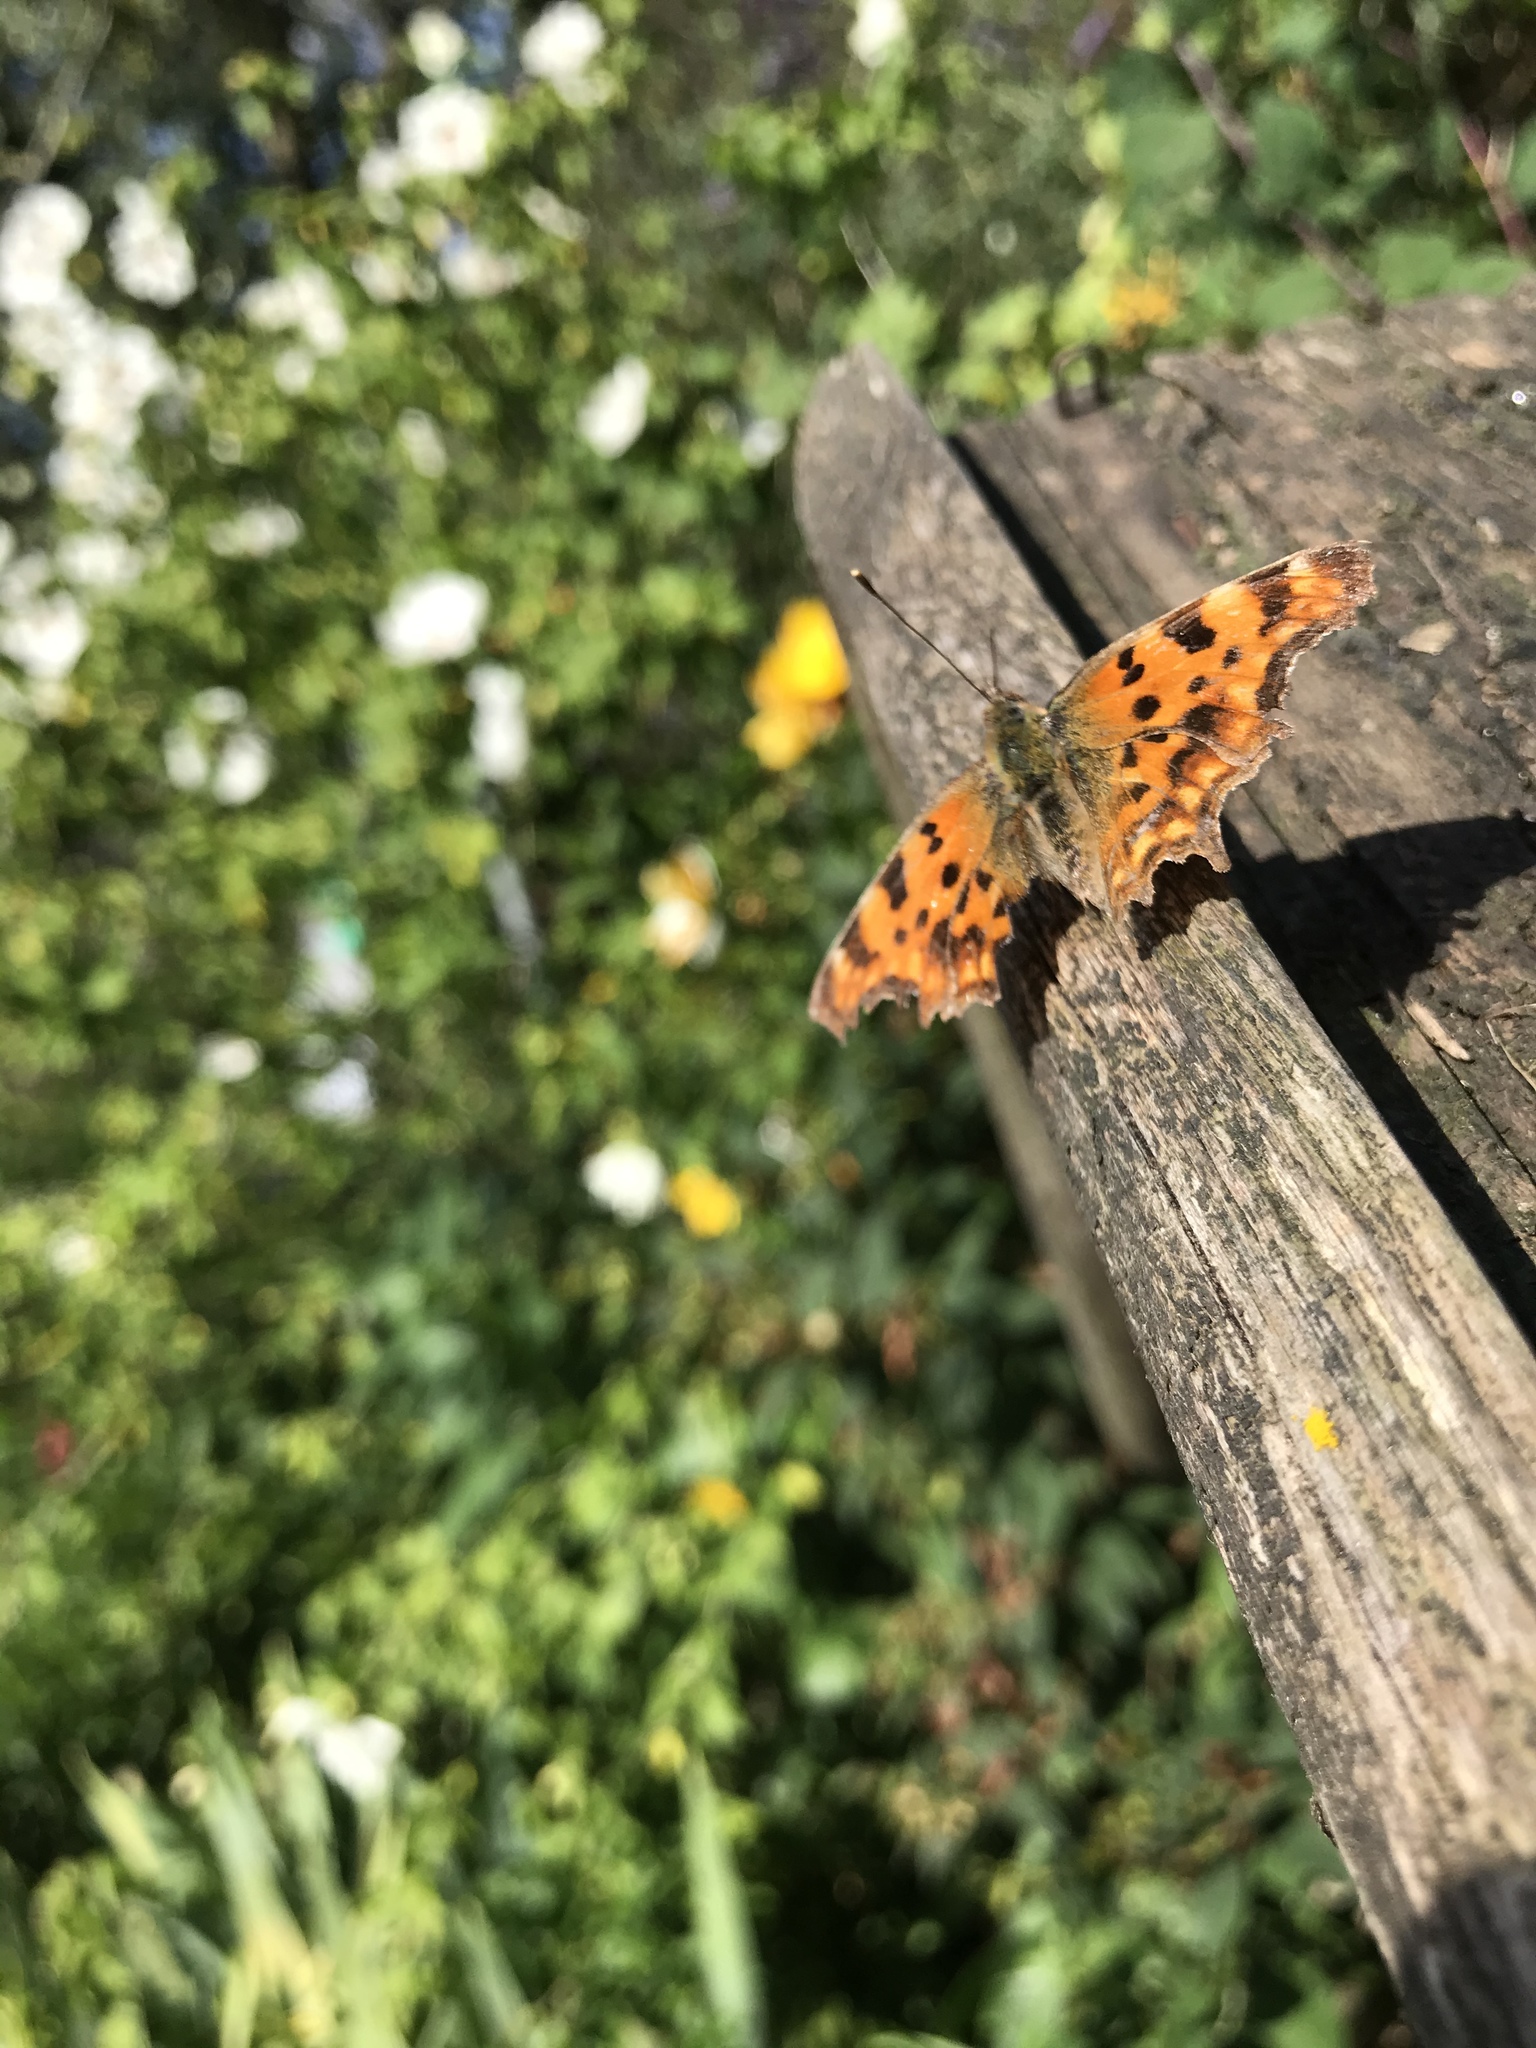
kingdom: Animalia
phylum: Arthropoda
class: Insecta
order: Lepidoptera
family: Nymphalidae
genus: Polygonia
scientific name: Polygonia c-album
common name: Comma
